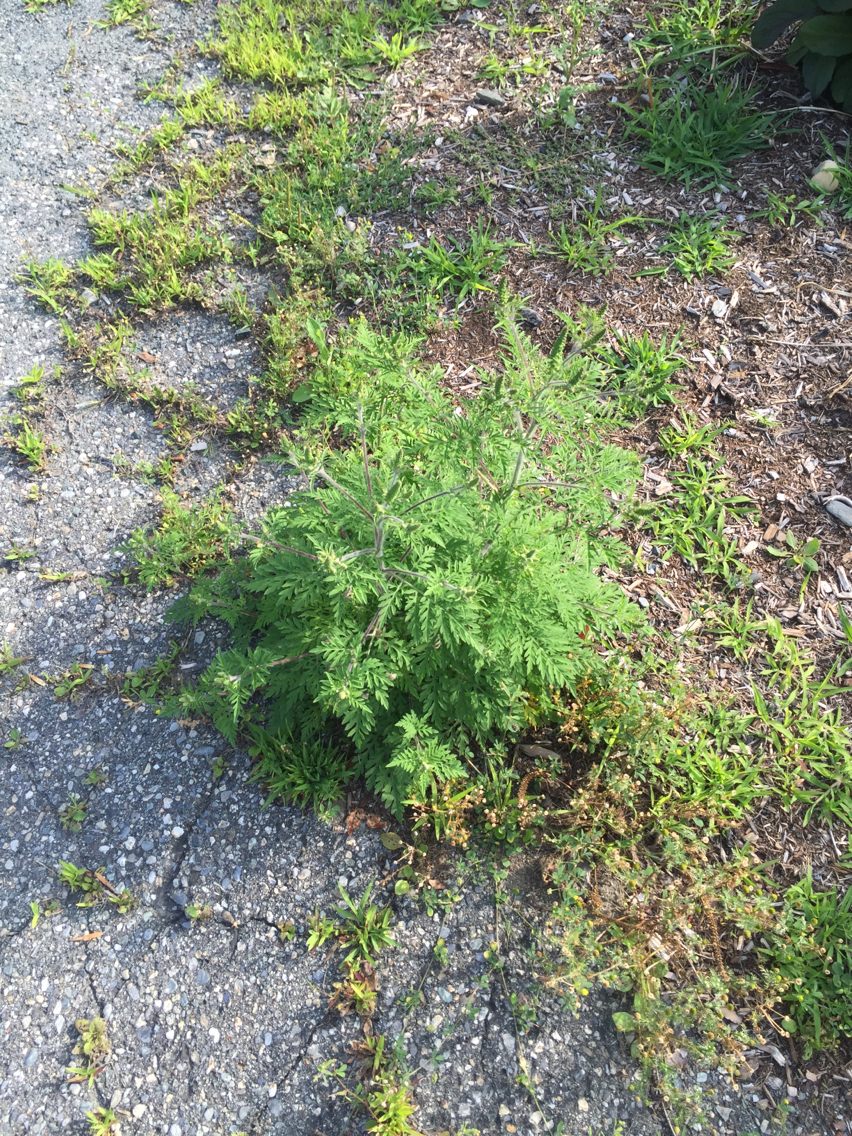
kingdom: Plantae
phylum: Tracheophyta
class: Magnoliopsida
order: Asterales
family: Asteraceae
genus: Ambrosia
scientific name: Ambrosia artemisiifolia
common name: Annual ragweed
